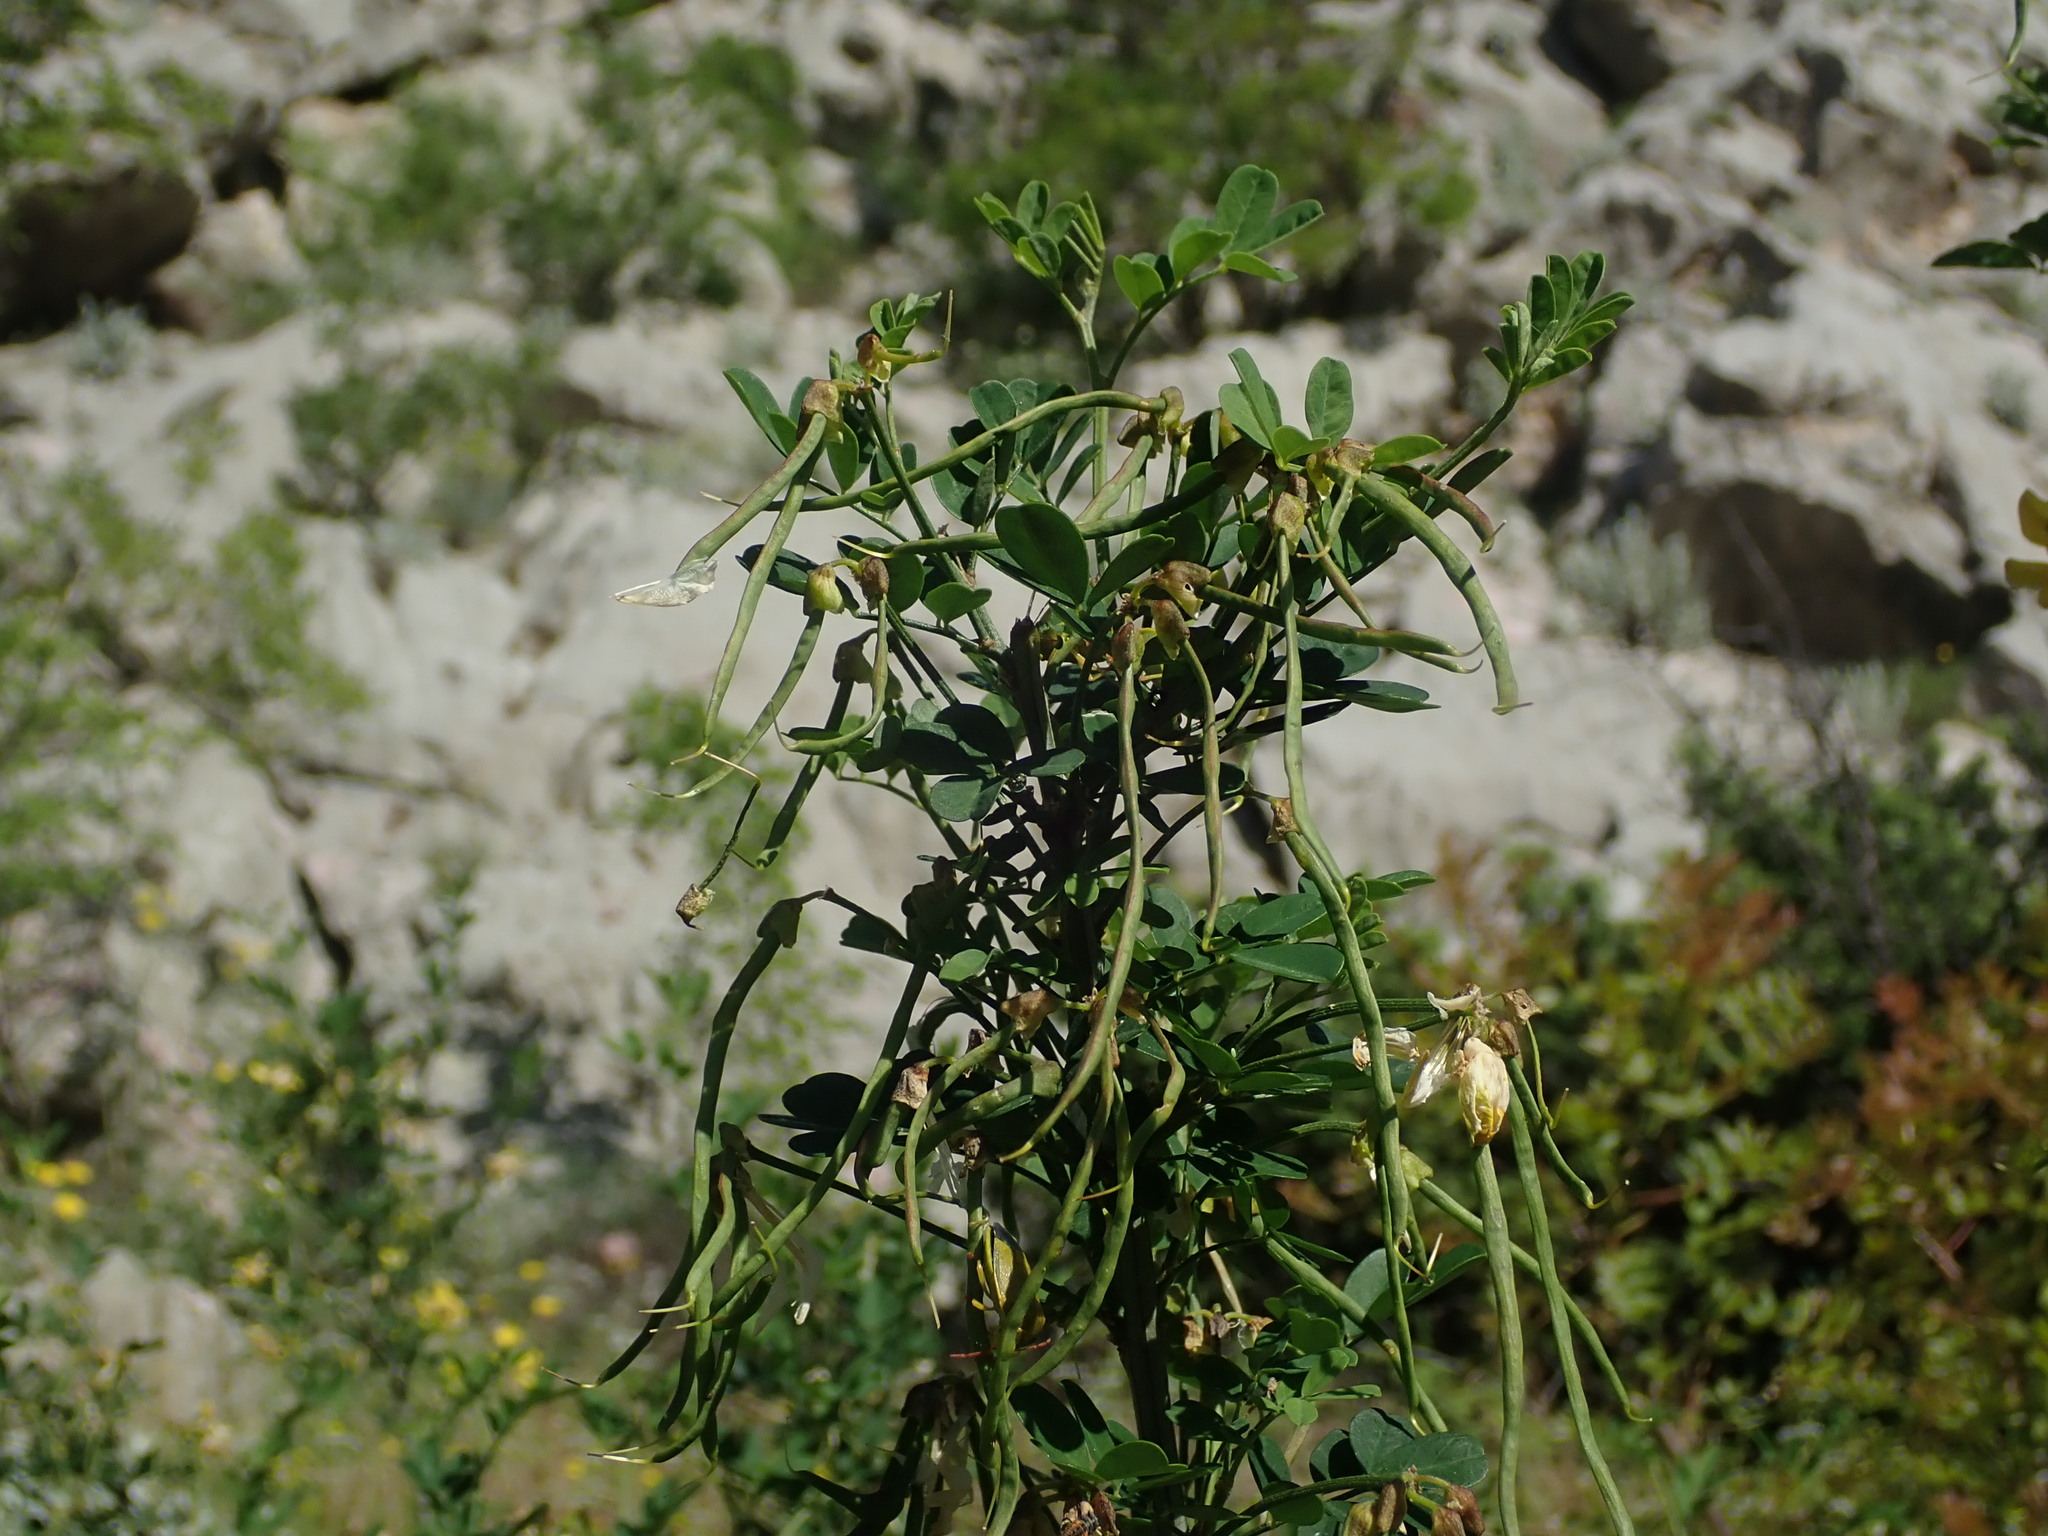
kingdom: Plantae
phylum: Tracheophyta
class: Magnoliopsida
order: Fabales
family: Fabaceae
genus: Hippocrepis
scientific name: Hippocrepis emerus
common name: Scorpion senna
